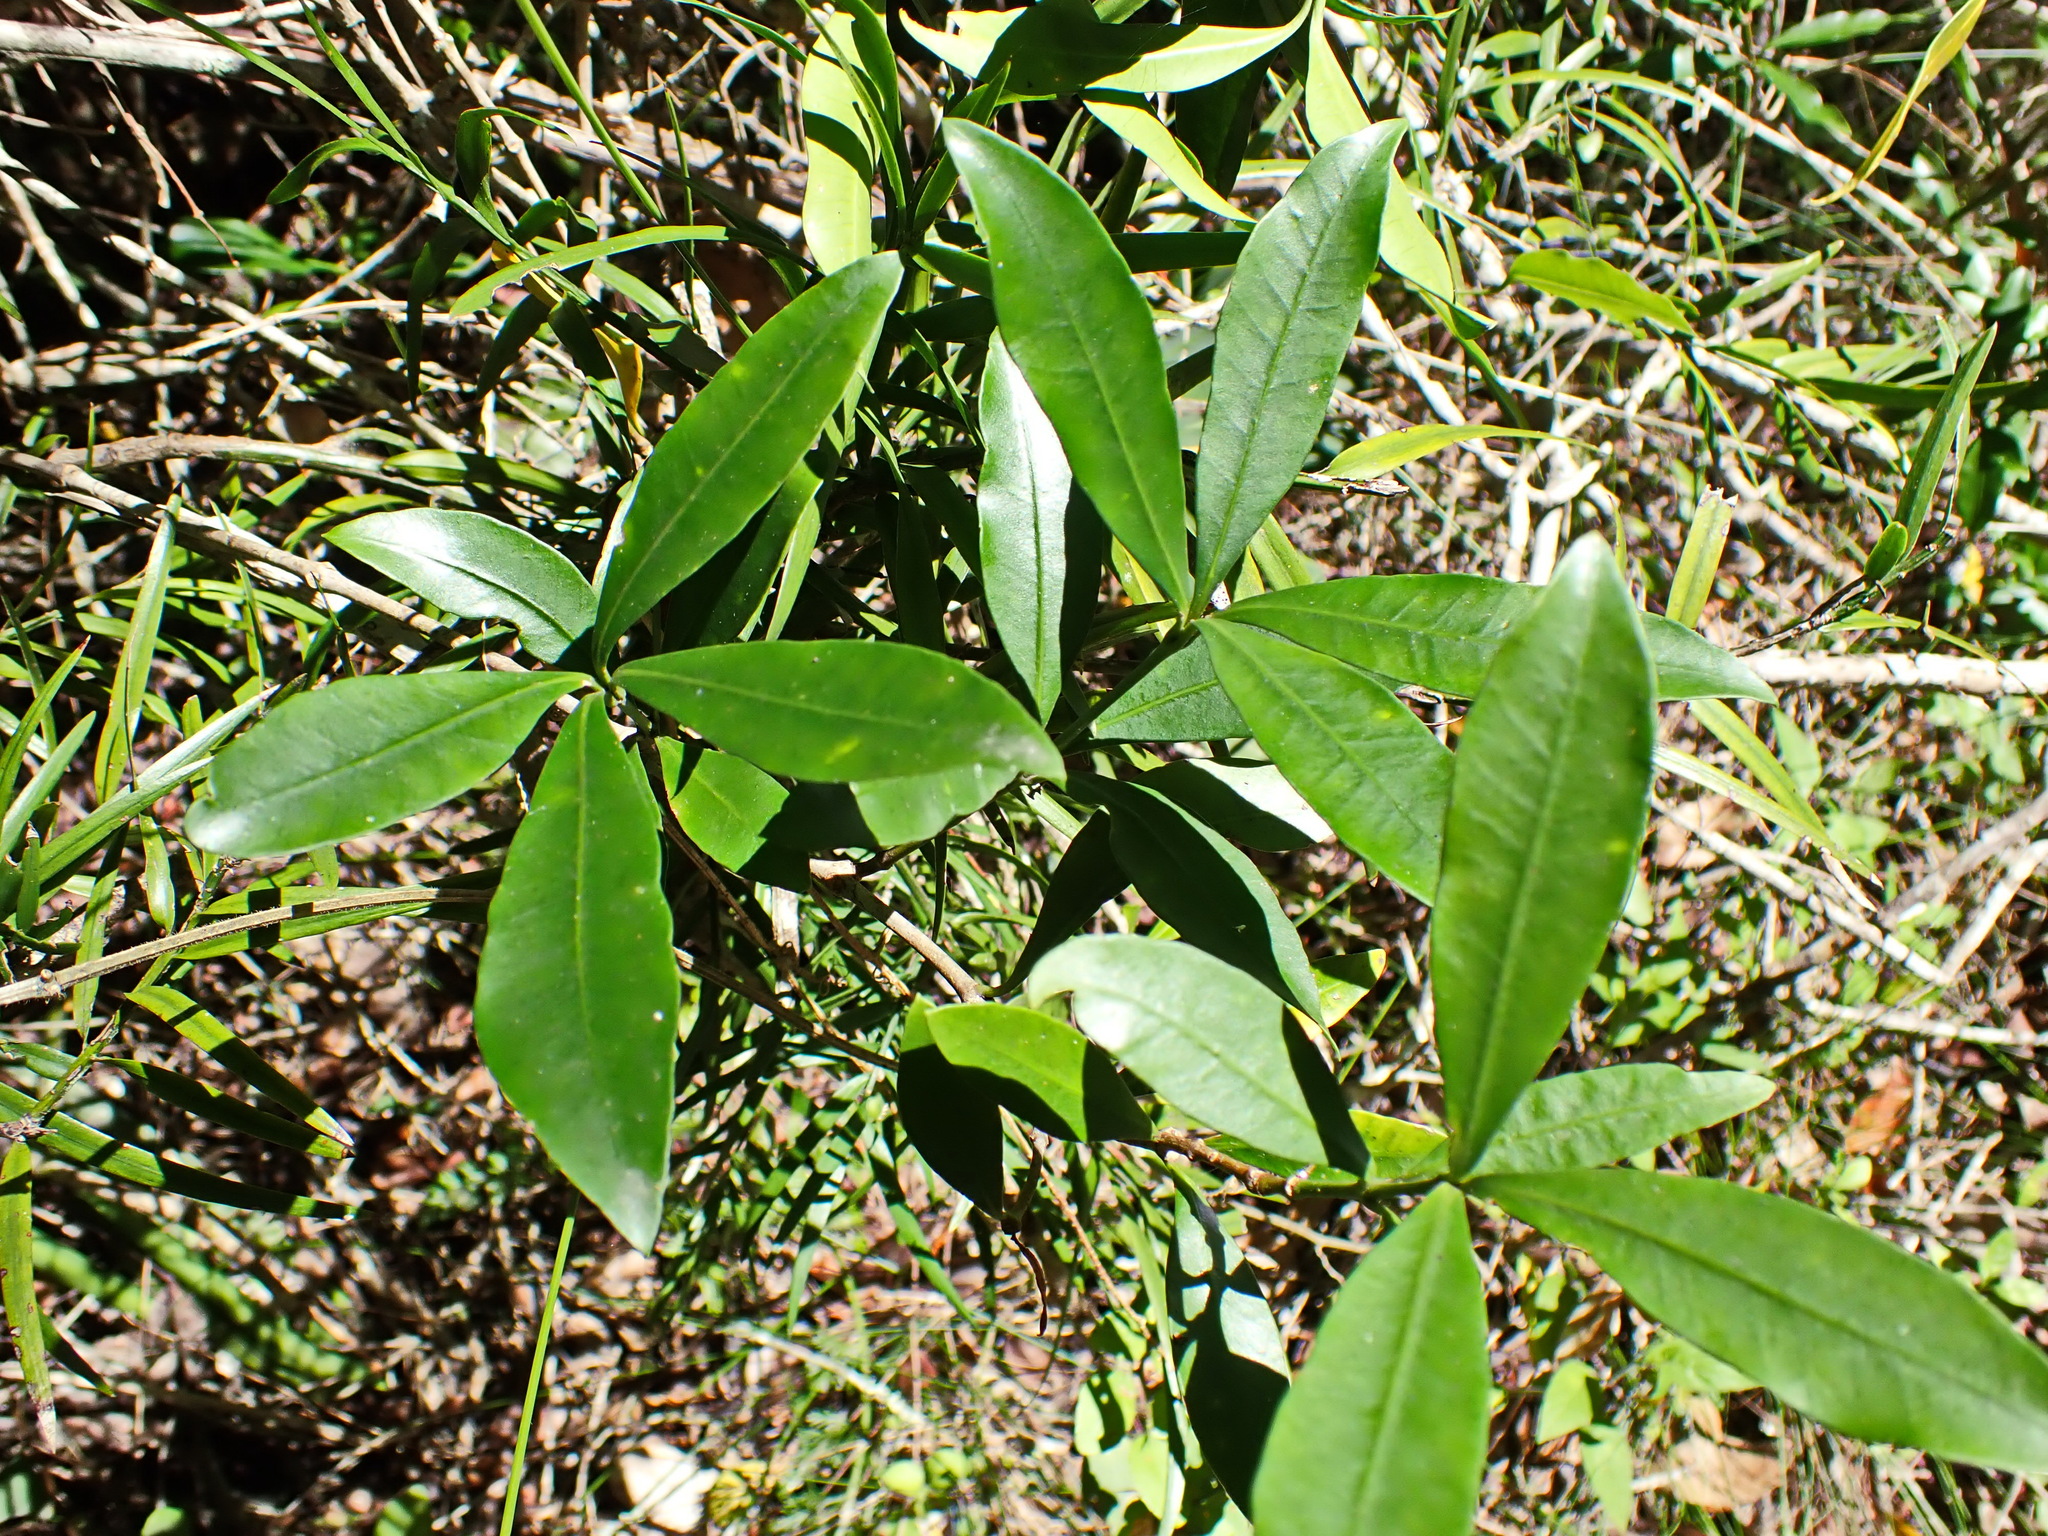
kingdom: Plantae
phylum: Tracheophyta
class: Magnoliopsida
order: Gentianales
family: Apocynaceae
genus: Gonioma
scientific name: Gonioma kamassi
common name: Kamassi
